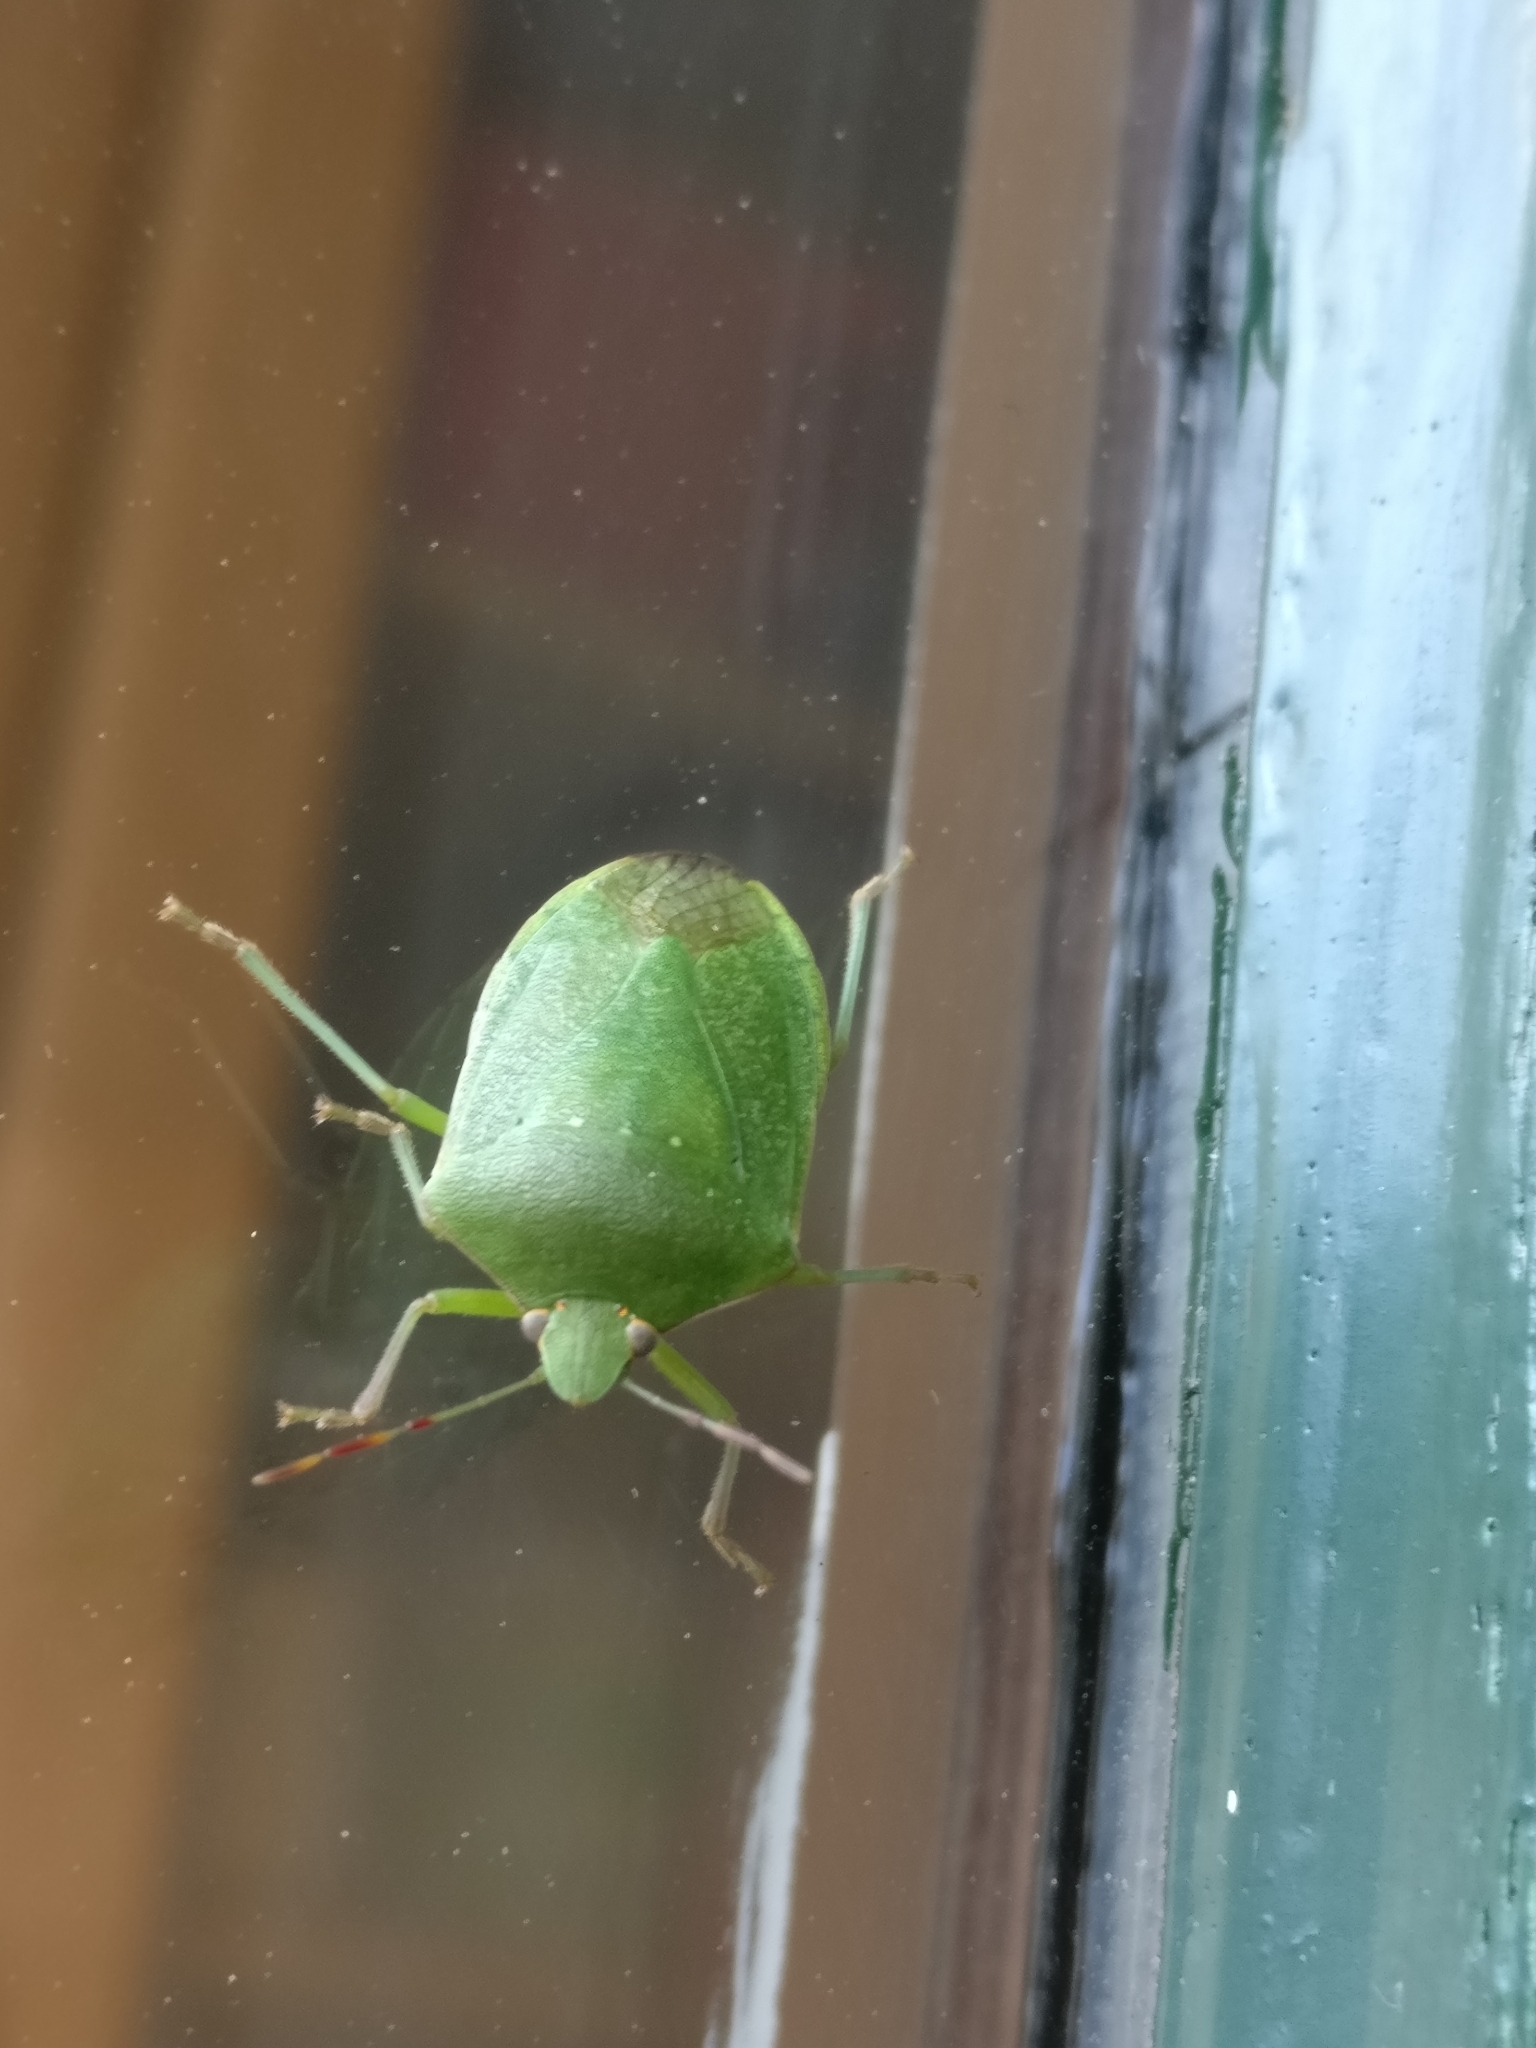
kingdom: Animalia
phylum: Arthropoda
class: Insecta
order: Hemiptera
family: Pentatomidae
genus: Nezara
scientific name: Nezara viridula
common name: Southern green stink bug
